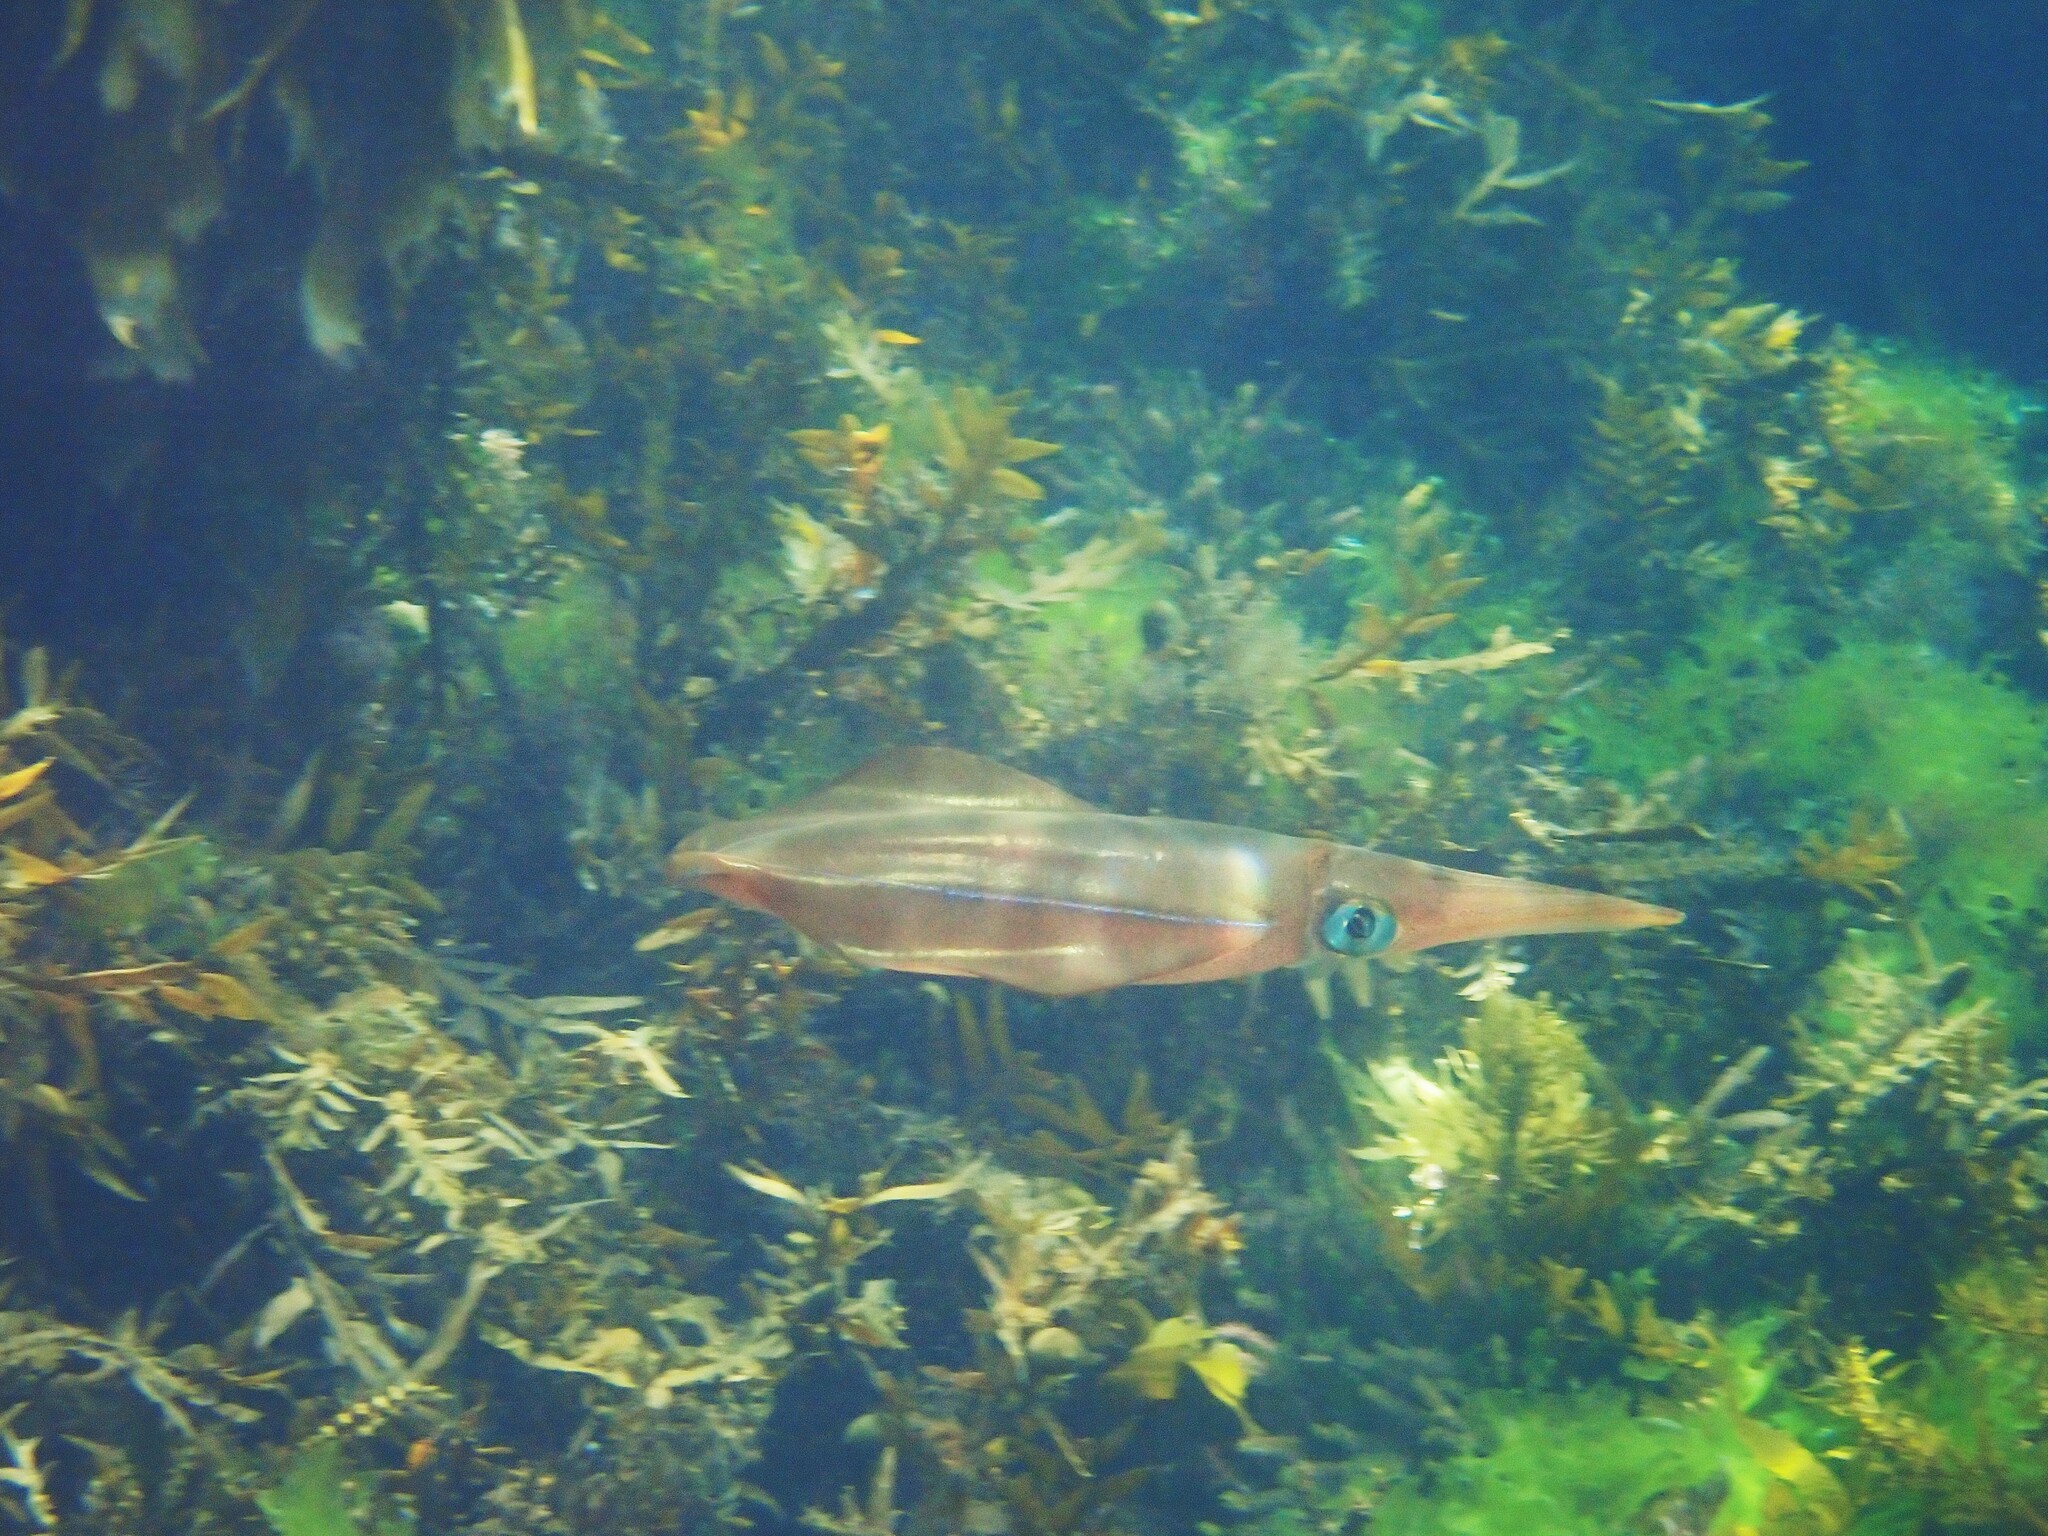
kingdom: Animalia
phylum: Mollusca
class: Cephalopoda
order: Myopsida
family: Loliginidae
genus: Sepioteuthis
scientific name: Sepioteuthis australis
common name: Southern reef squid
